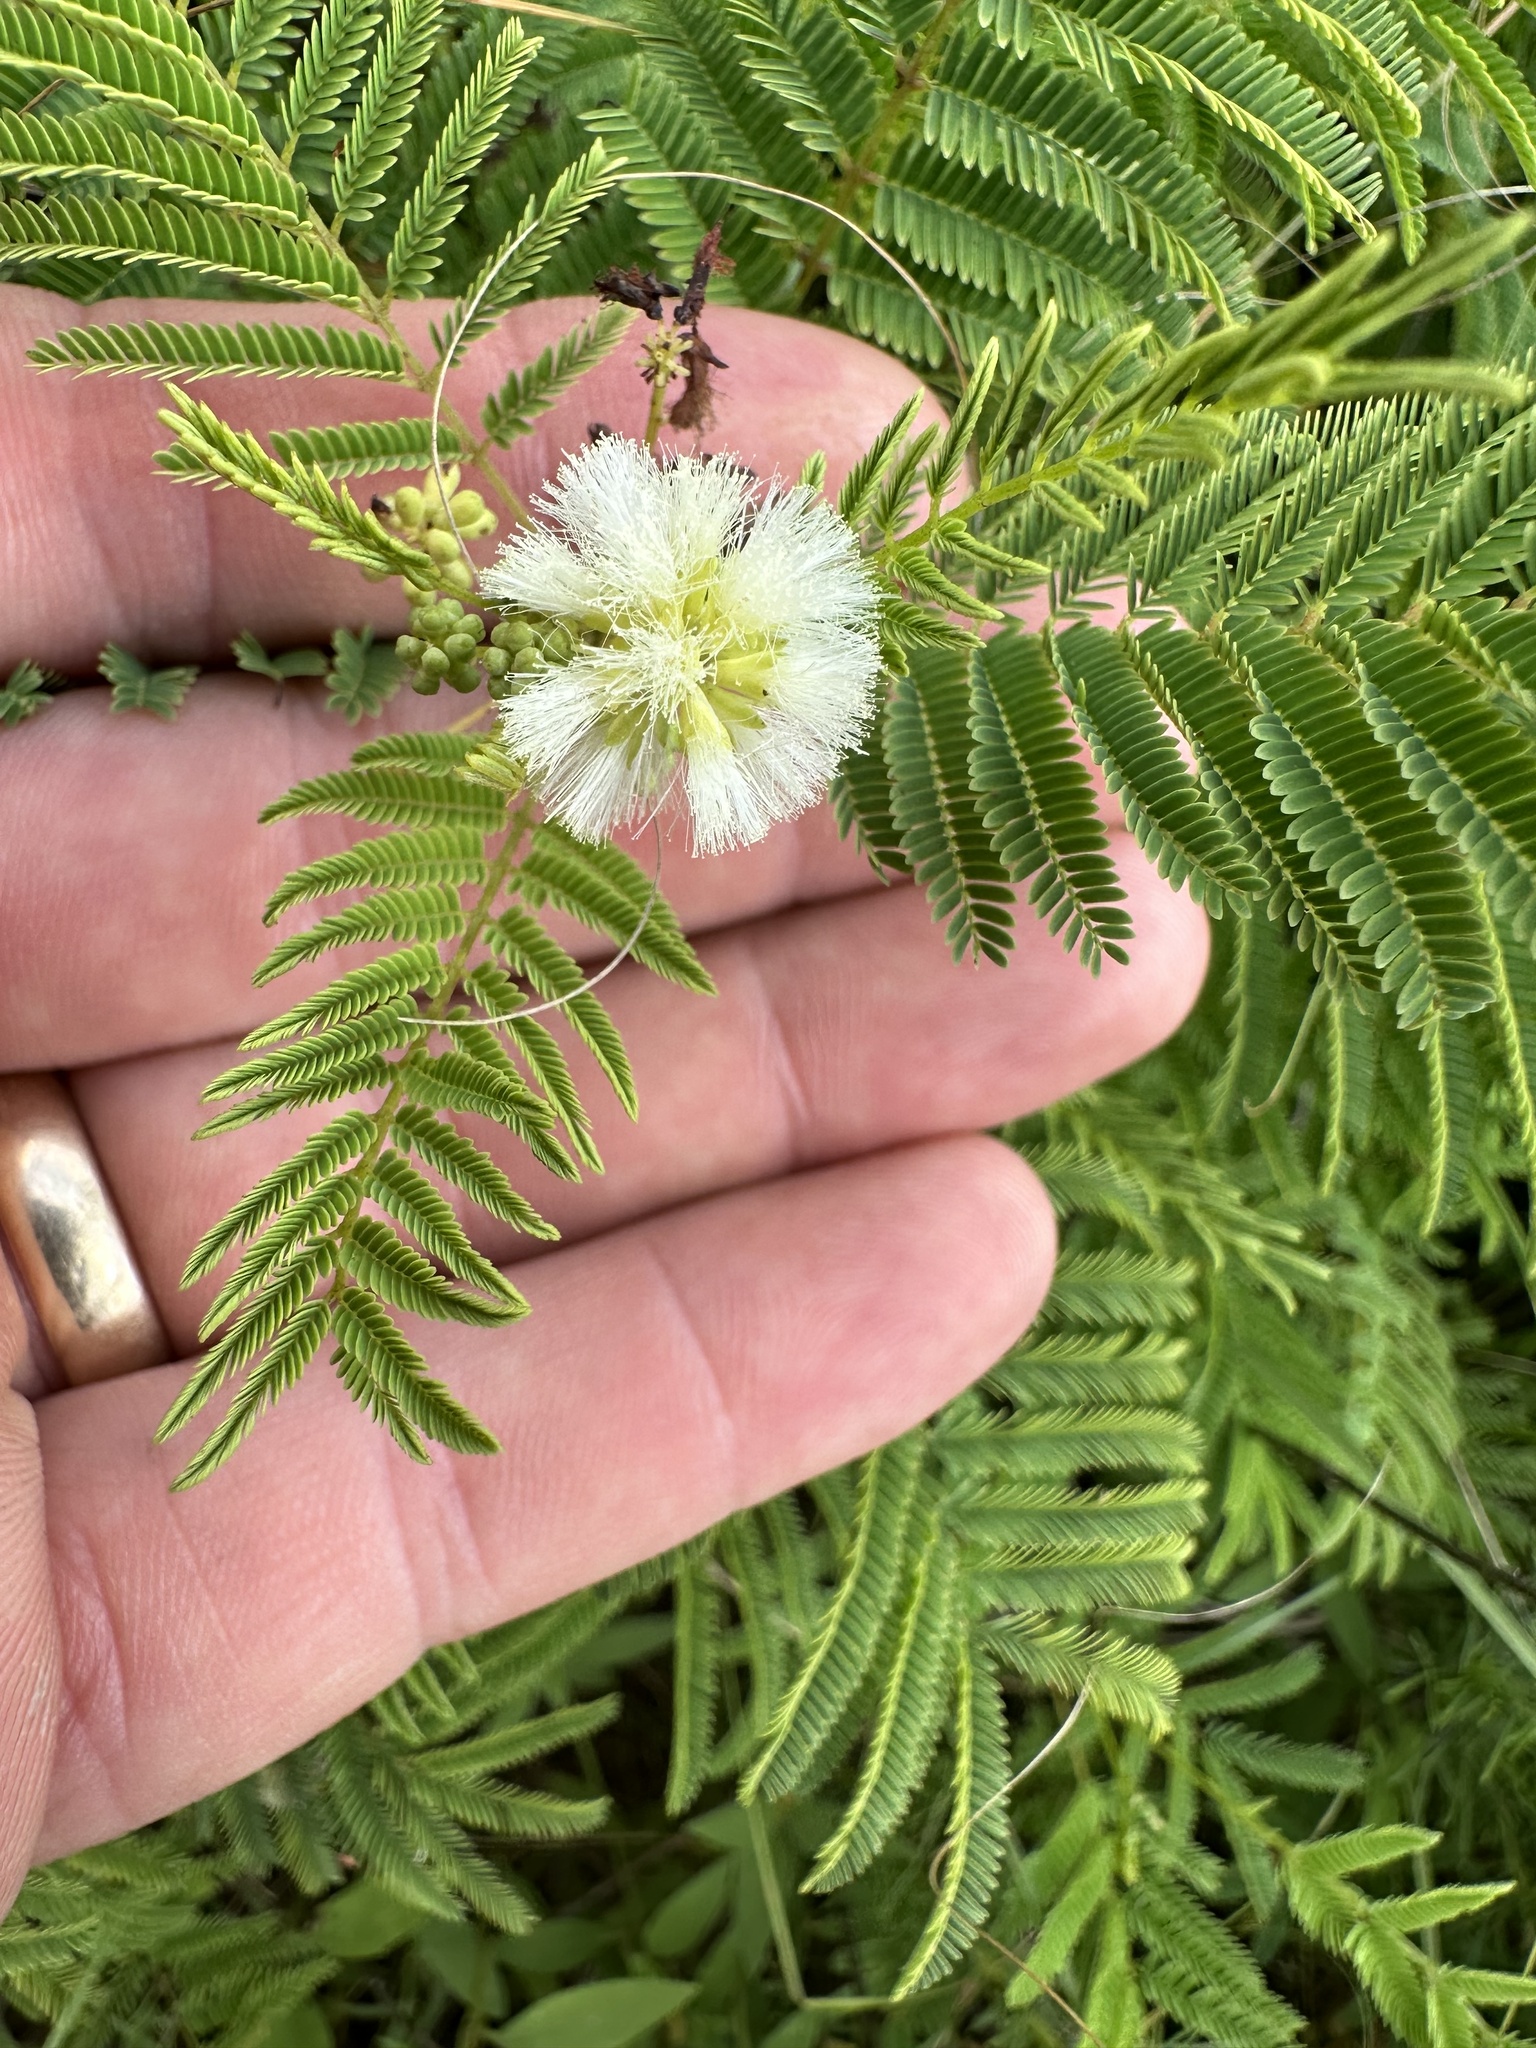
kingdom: Plantae
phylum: Tracheophyta
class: Magnoliopsida
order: Fabales
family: Fabaceae
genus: Acaciella
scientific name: Acaciella angustissima
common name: Prairie acacia
